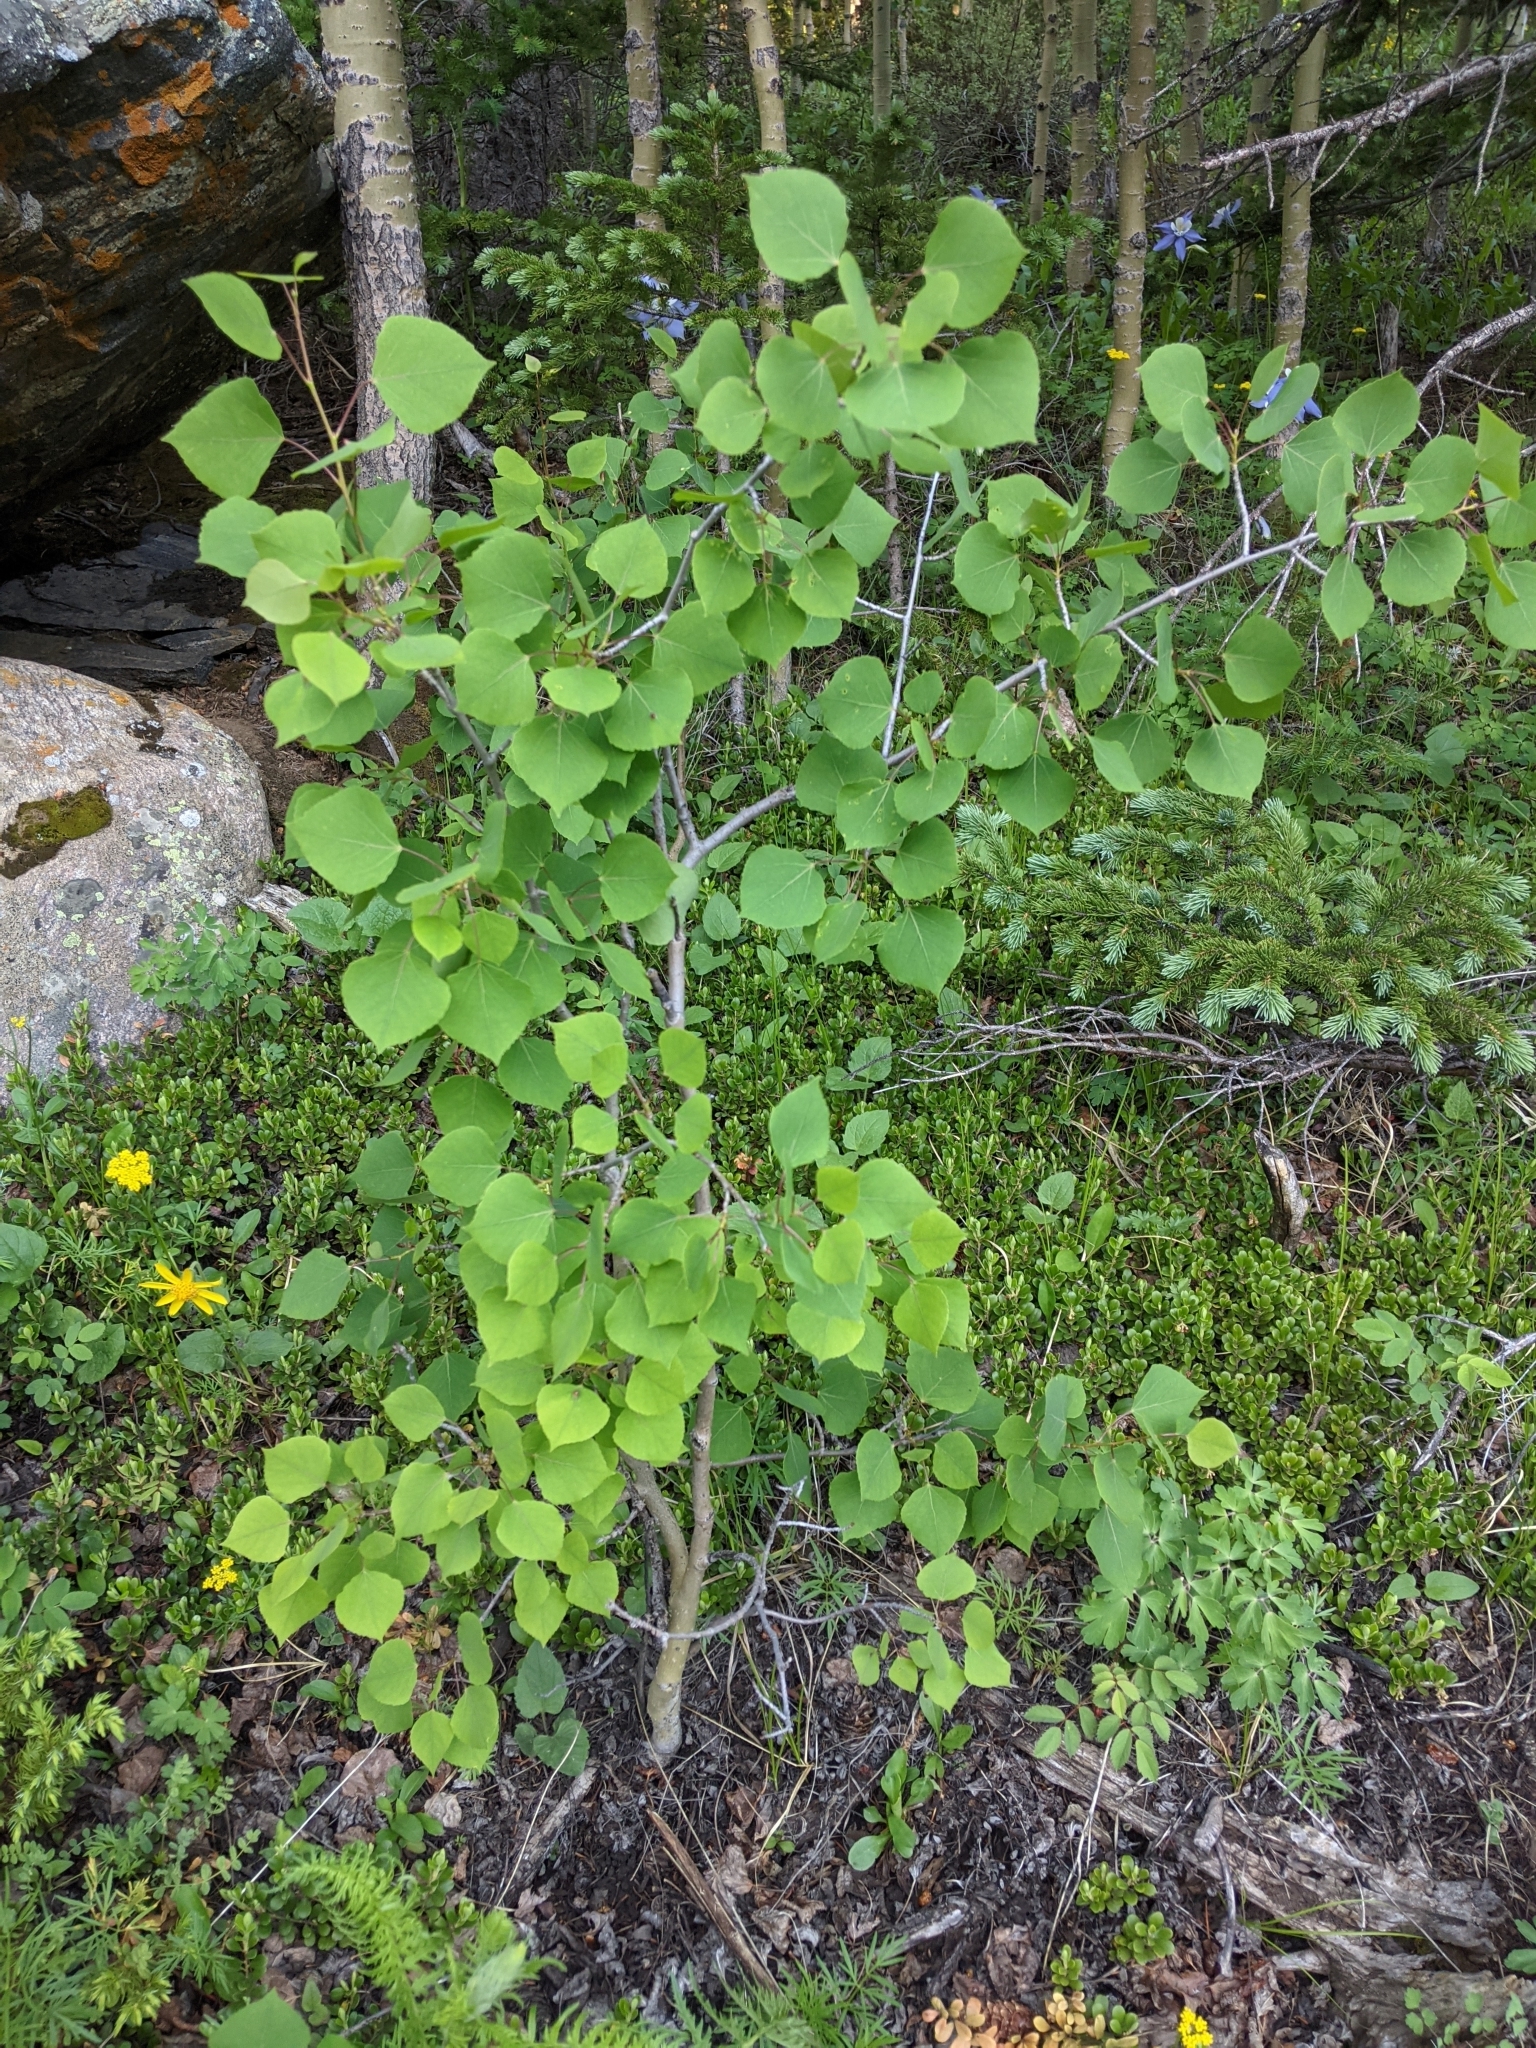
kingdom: Plantae
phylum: Tracheophyta
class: Magnoliopsida
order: Malpighiales
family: Salicaceae
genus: Populus
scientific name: Populus tremuloides
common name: Quaking aspen
